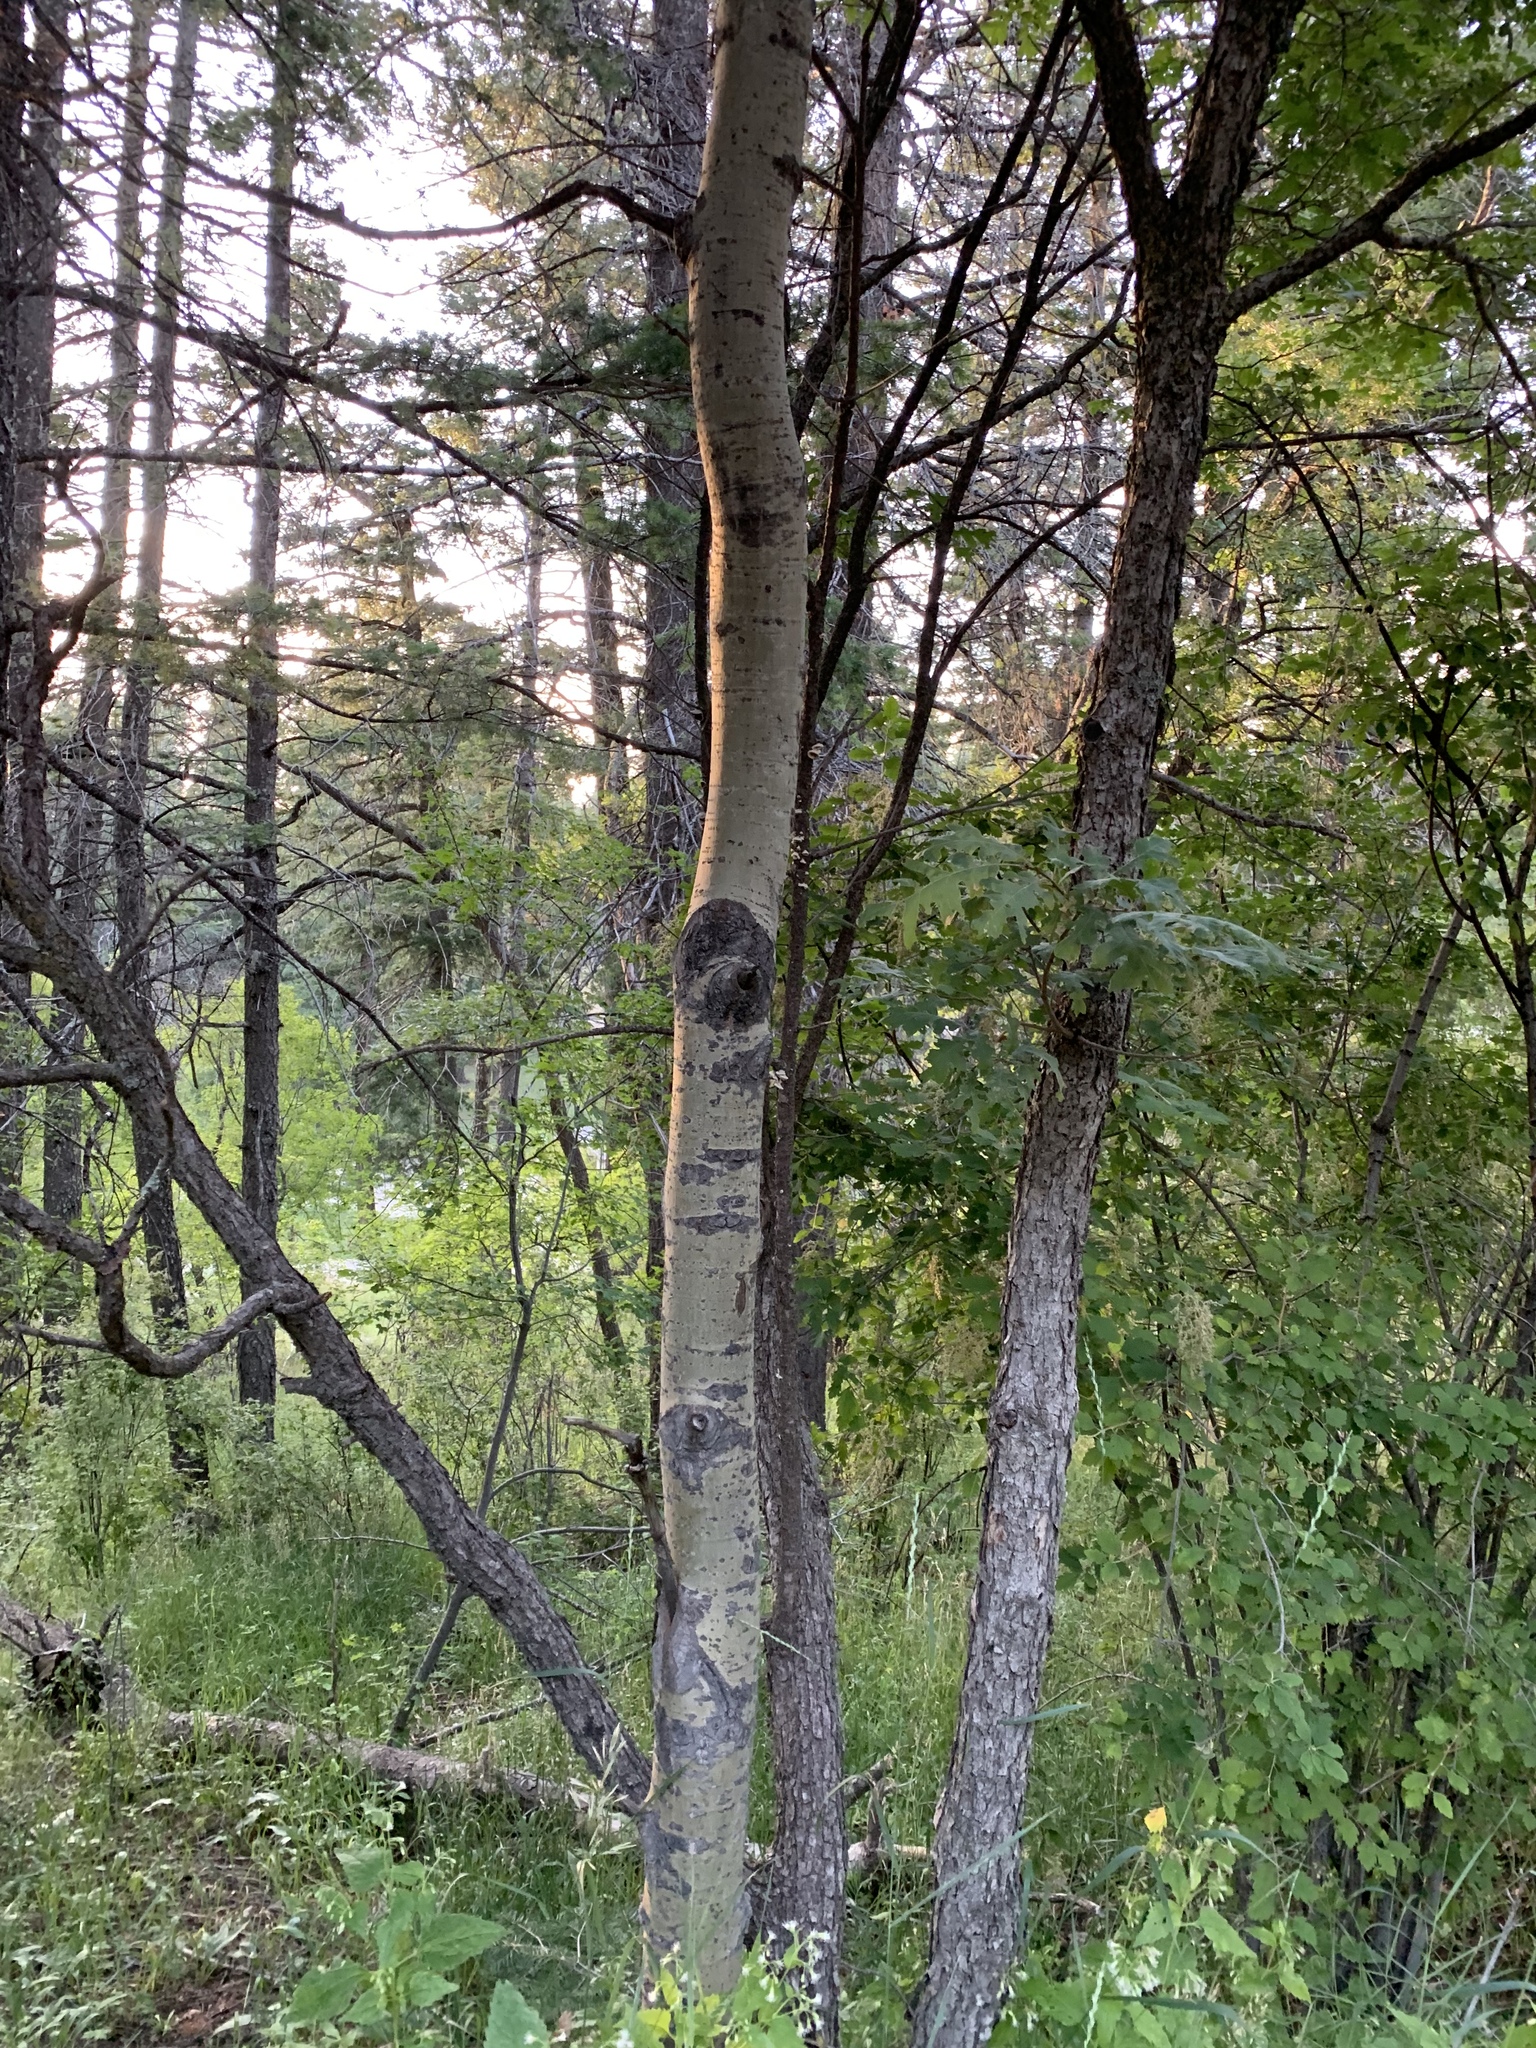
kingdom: Plantae
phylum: Tracheophyta
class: Magnoliopsida
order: Malpighiales
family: Salicaceae
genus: Populus
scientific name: Populus tremuloides
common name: Quaking aspen
